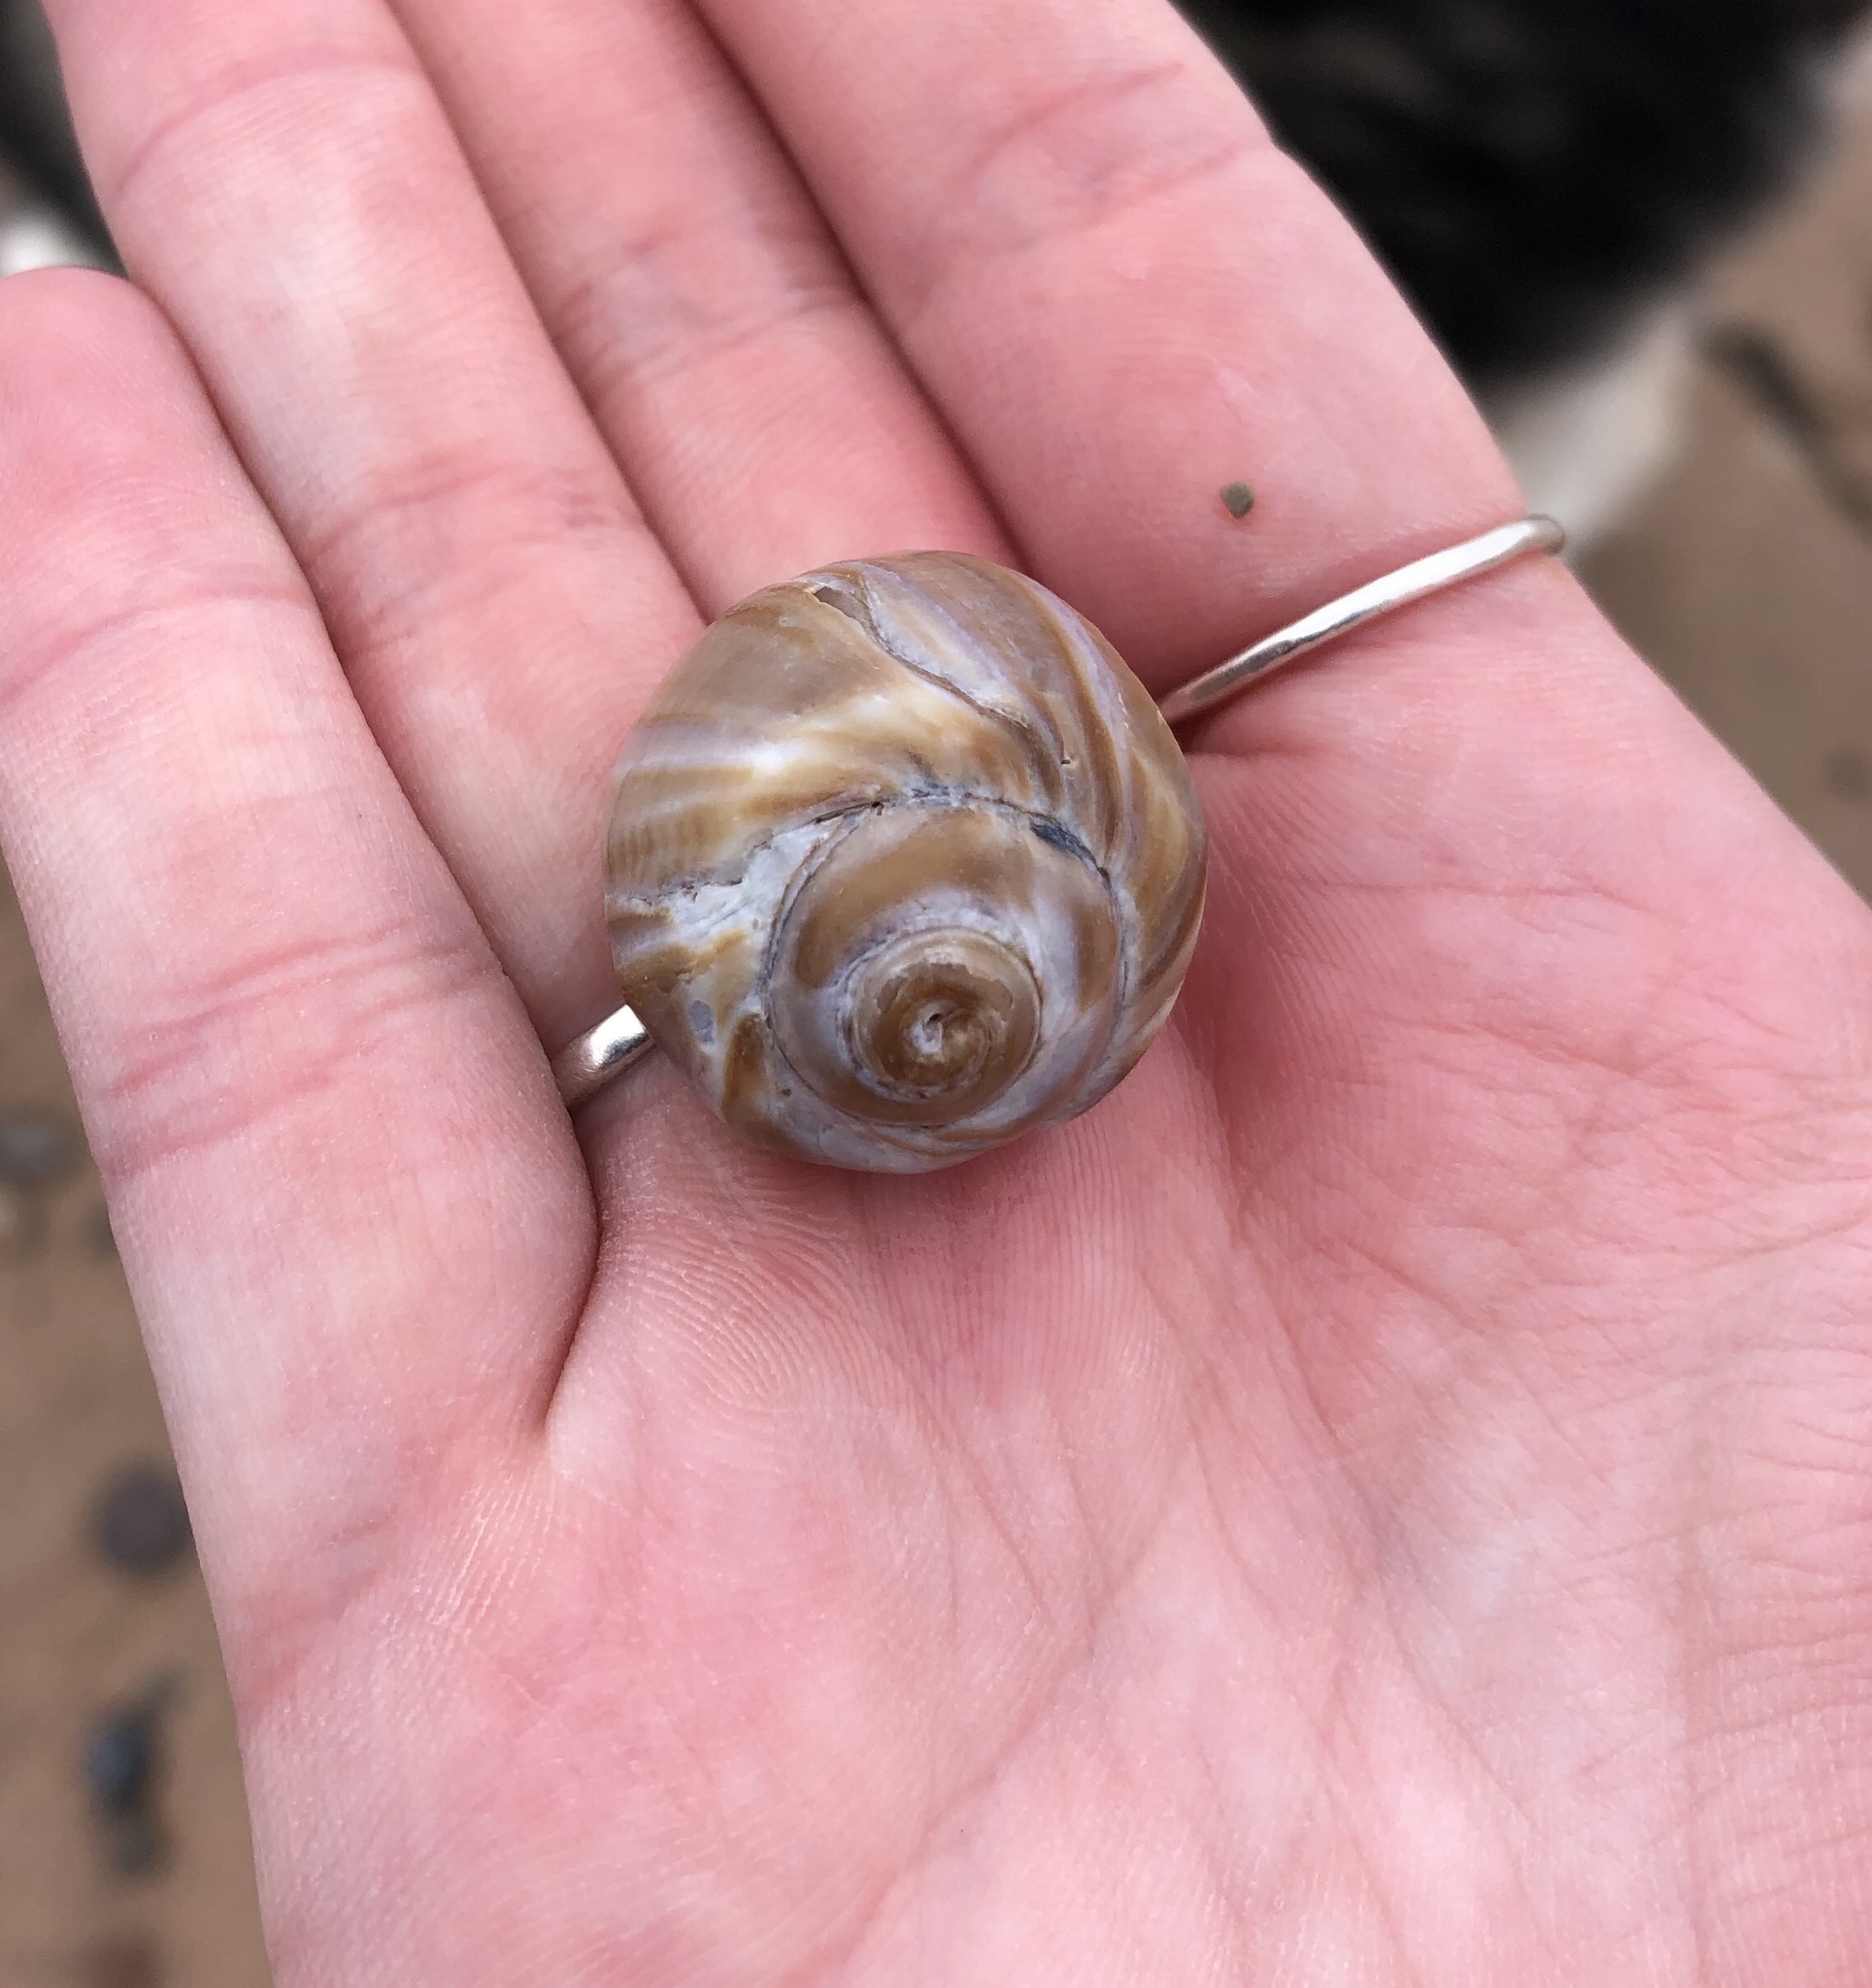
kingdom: Animalia
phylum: Mollusca
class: Gastropoda
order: Littorinimorpha
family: Naticidae
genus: Euspira
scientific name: Euspira heros
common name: Common northern moonsnail
